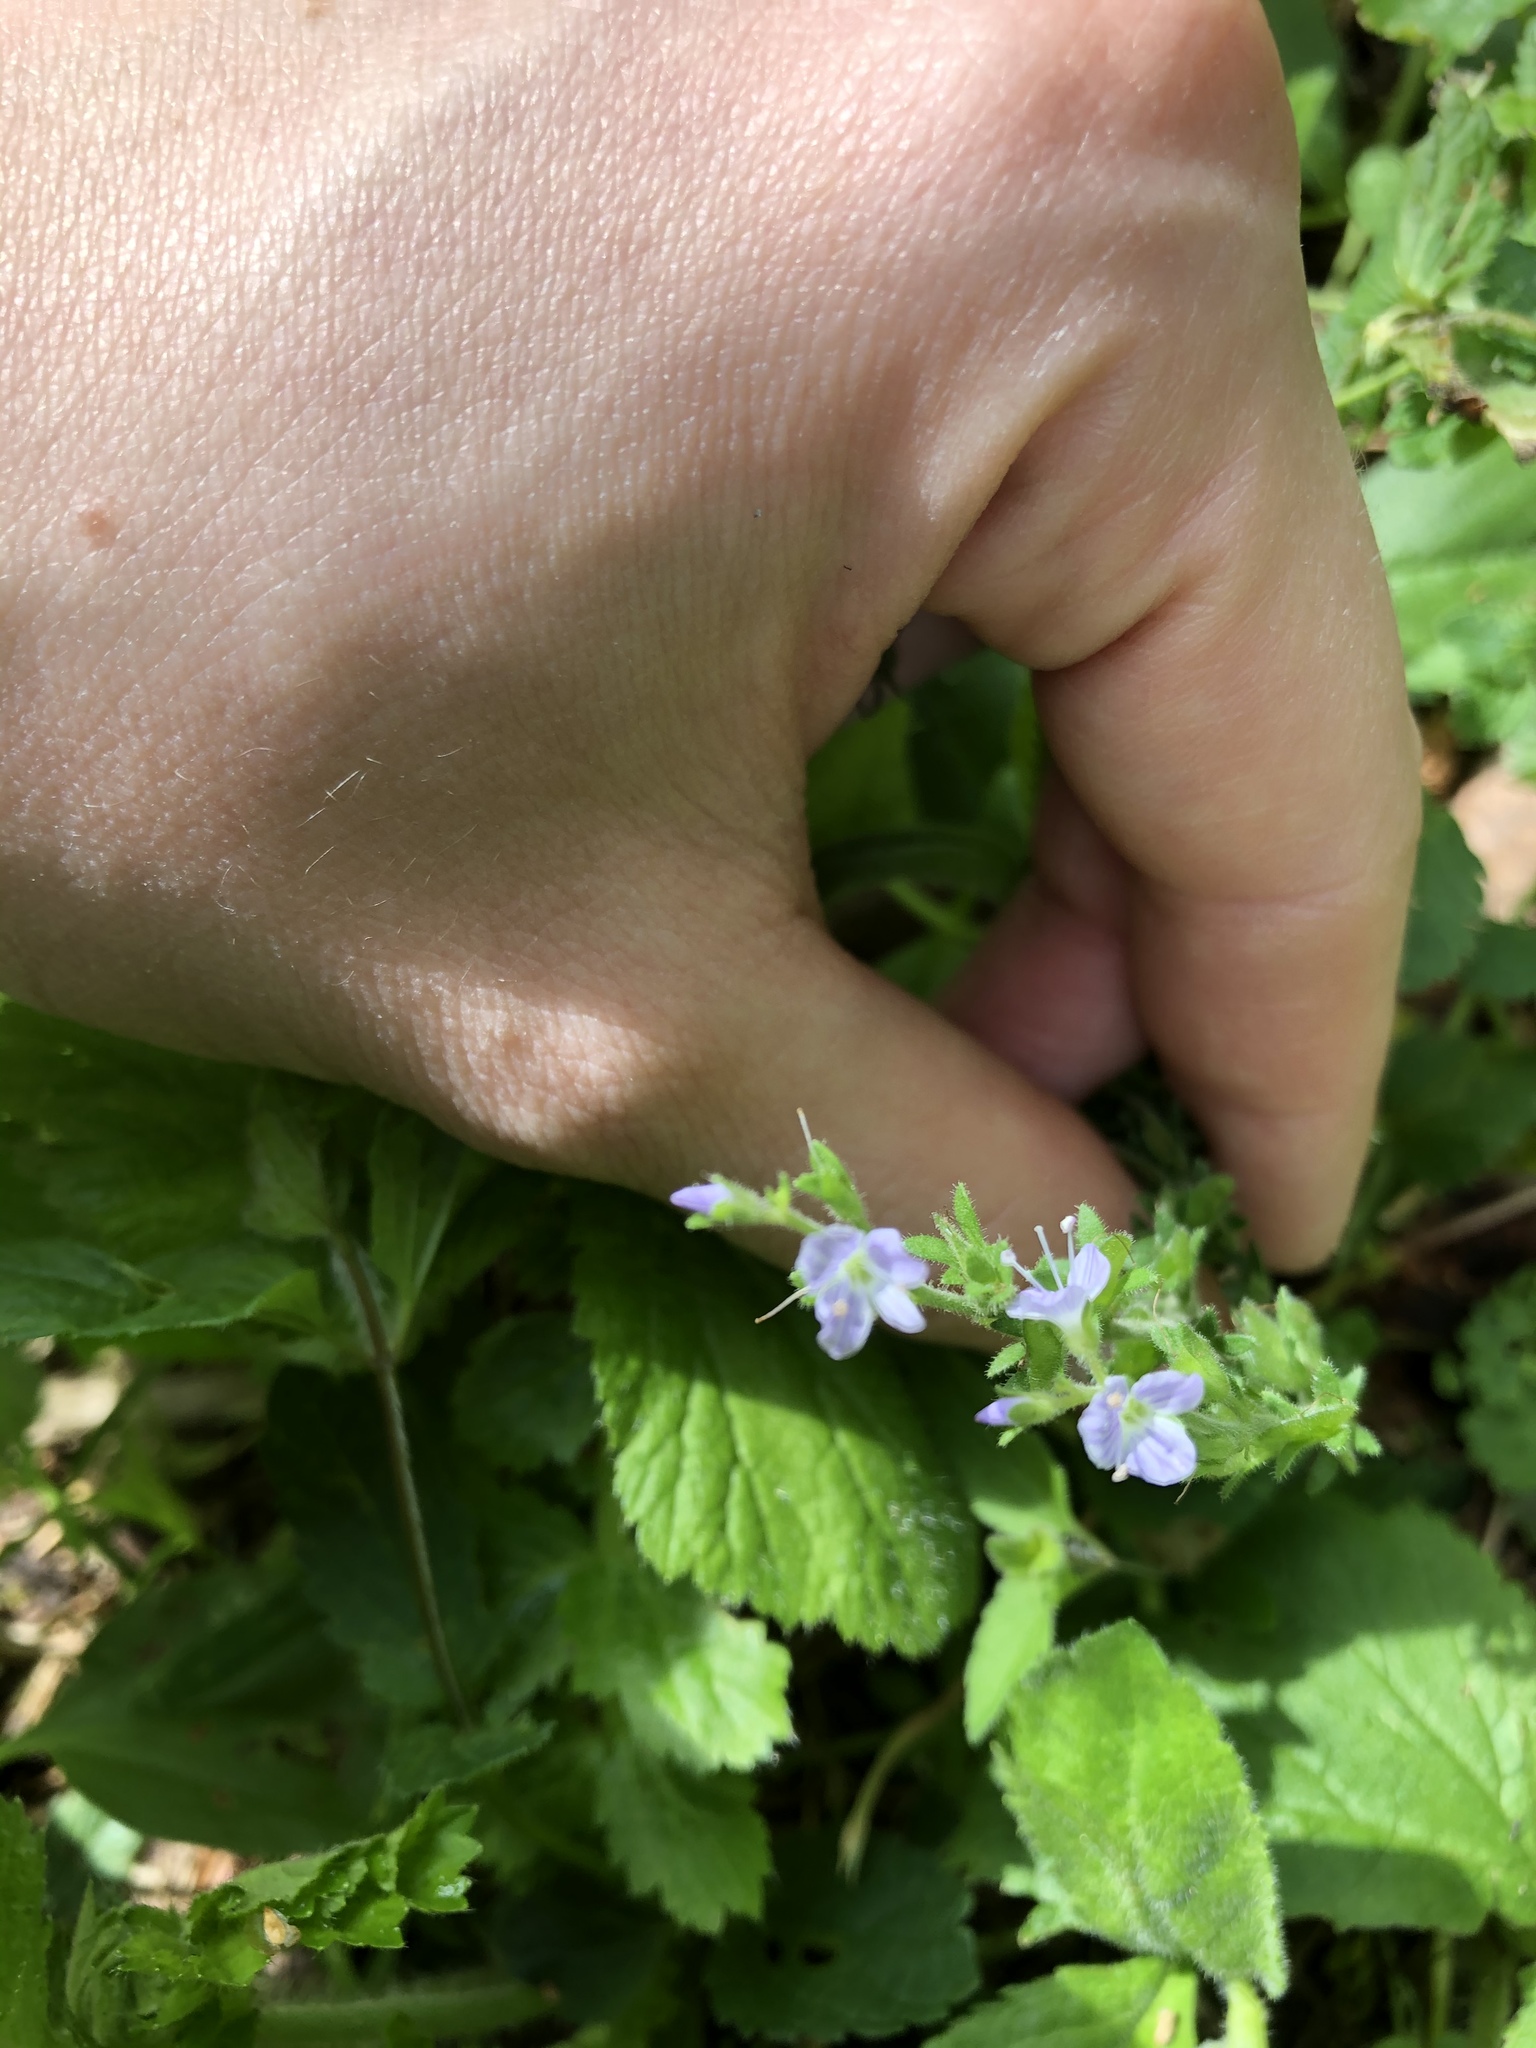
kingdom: Plantae
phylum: Tracheophyta
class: Magnoliopsida
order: Lamiales
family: Plantaginaceae
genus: Veronica
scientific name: Veronica officinalis
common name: Common speedwell
